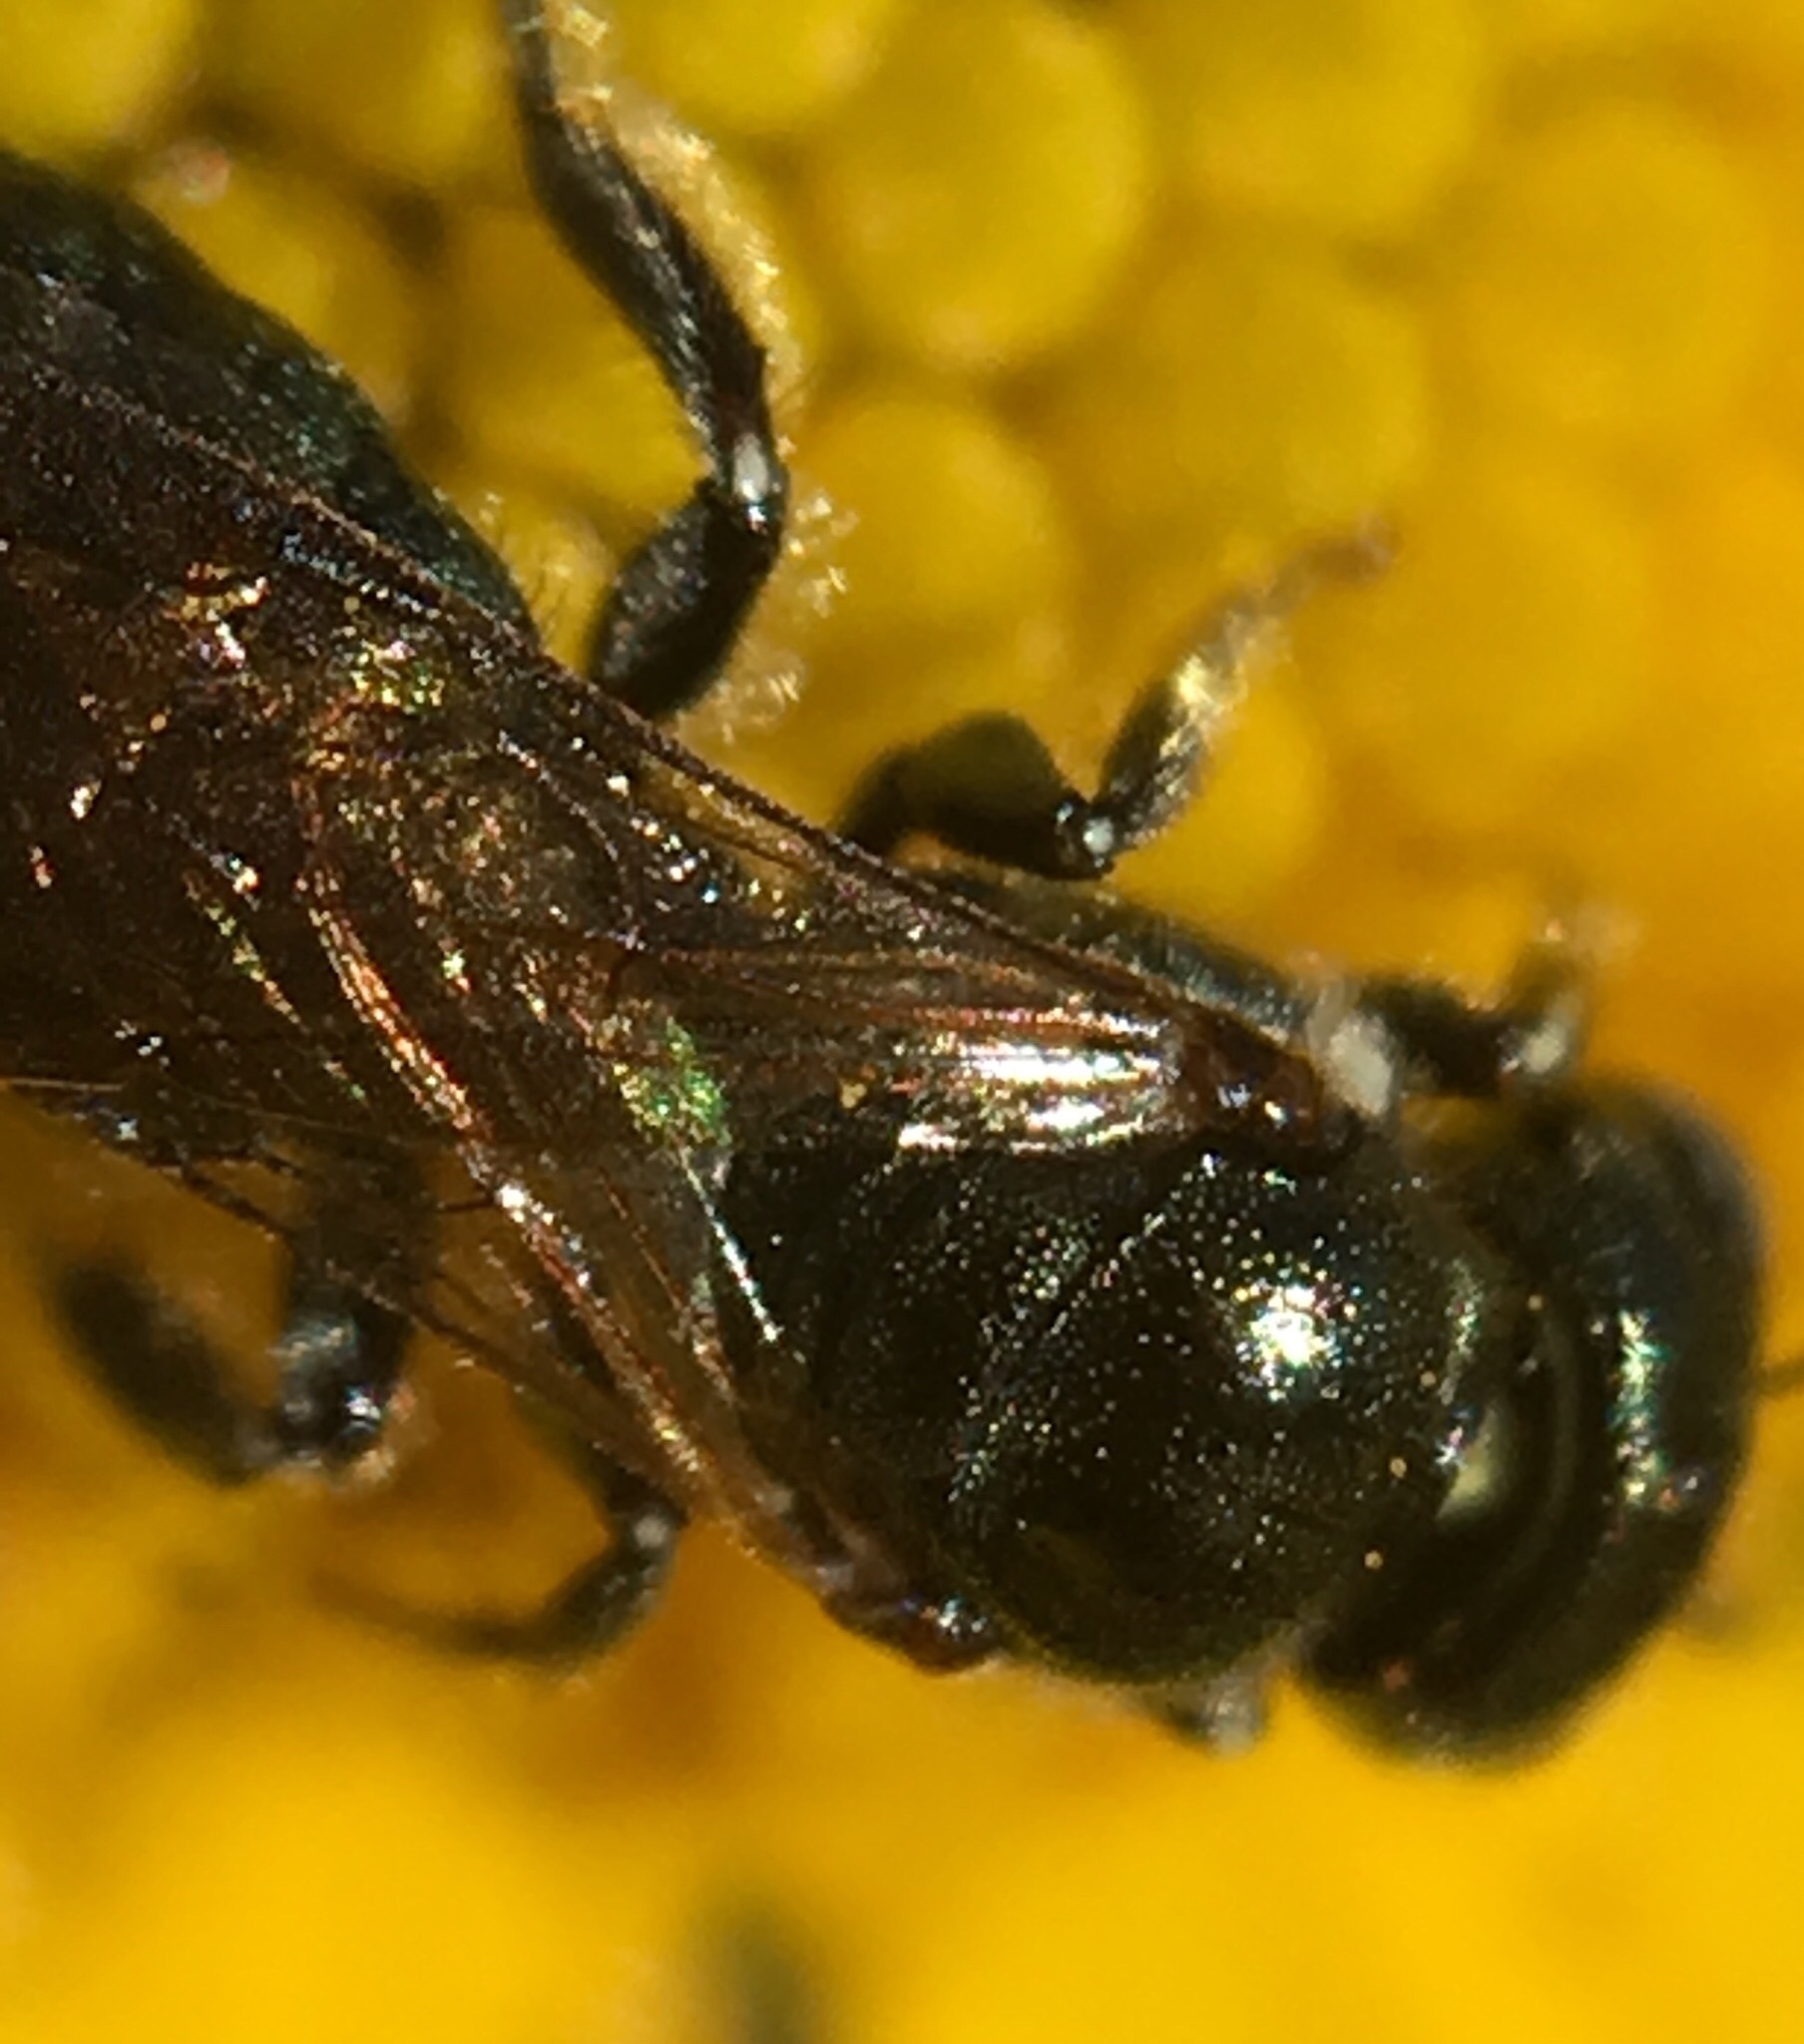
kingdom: Animalia
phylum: Arthropoda
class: Insecta
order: Hymenoptera
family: Apidae
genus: Ceratina
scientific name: Ceratina strenua
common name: Nimble carpenter bee
